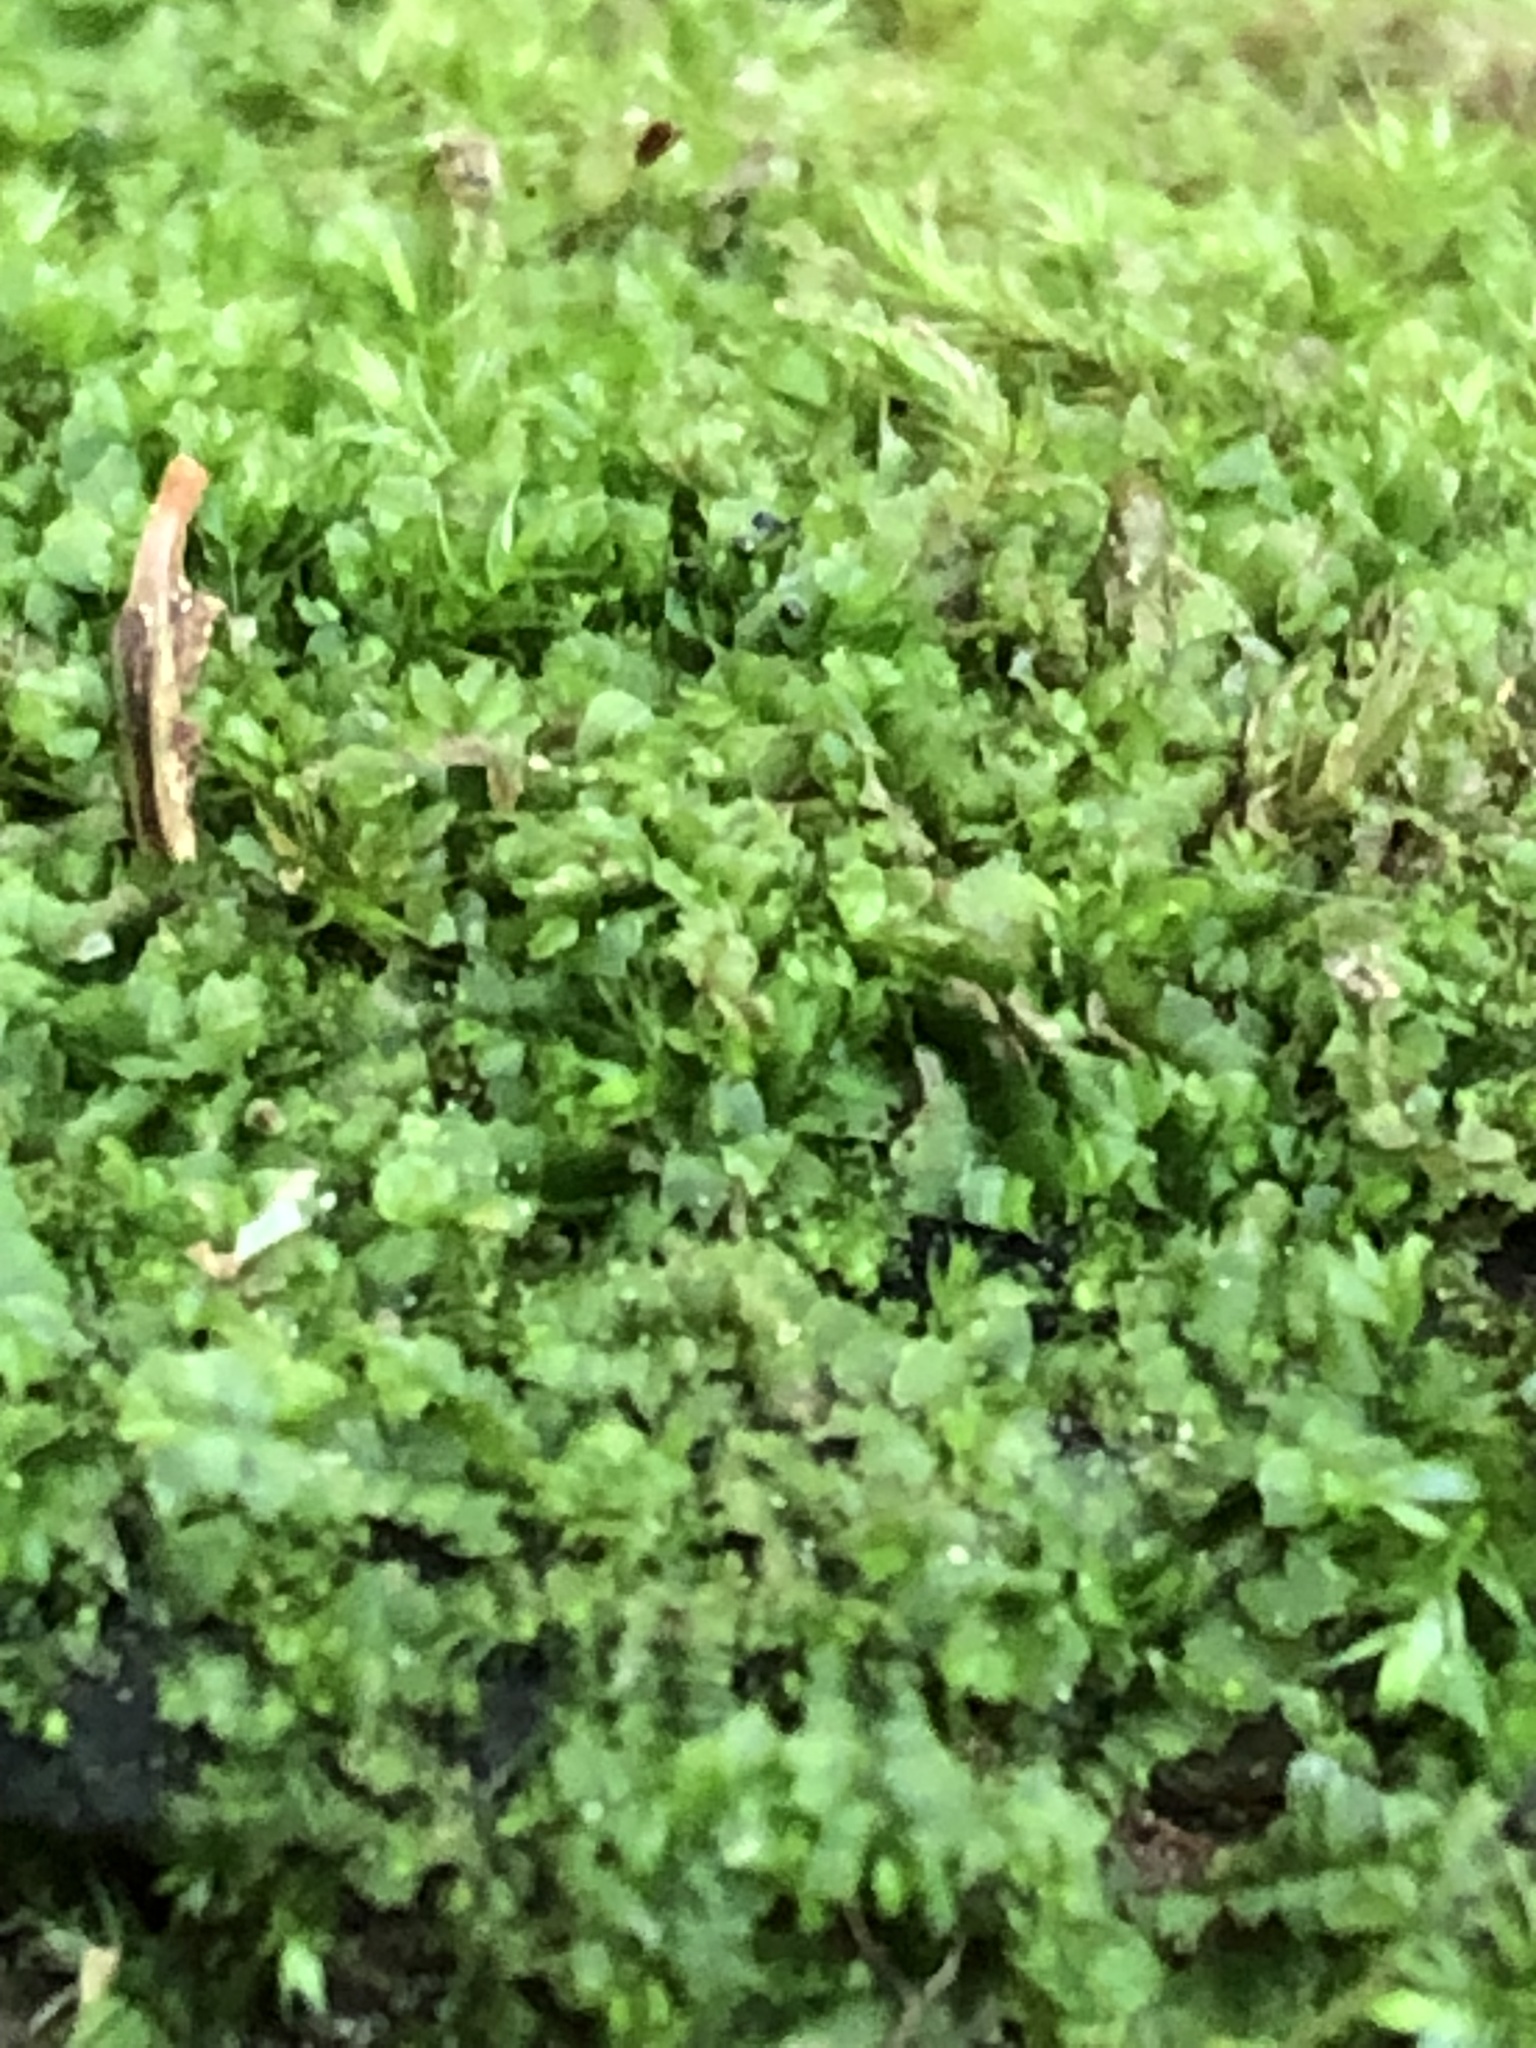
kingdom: Plantae
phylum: Marchantiophyta
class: Jungermanniopsida
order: Porellales
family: Radulaceae
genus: Radula
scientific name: Radula complanata
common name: Flat-leaved scalewort
